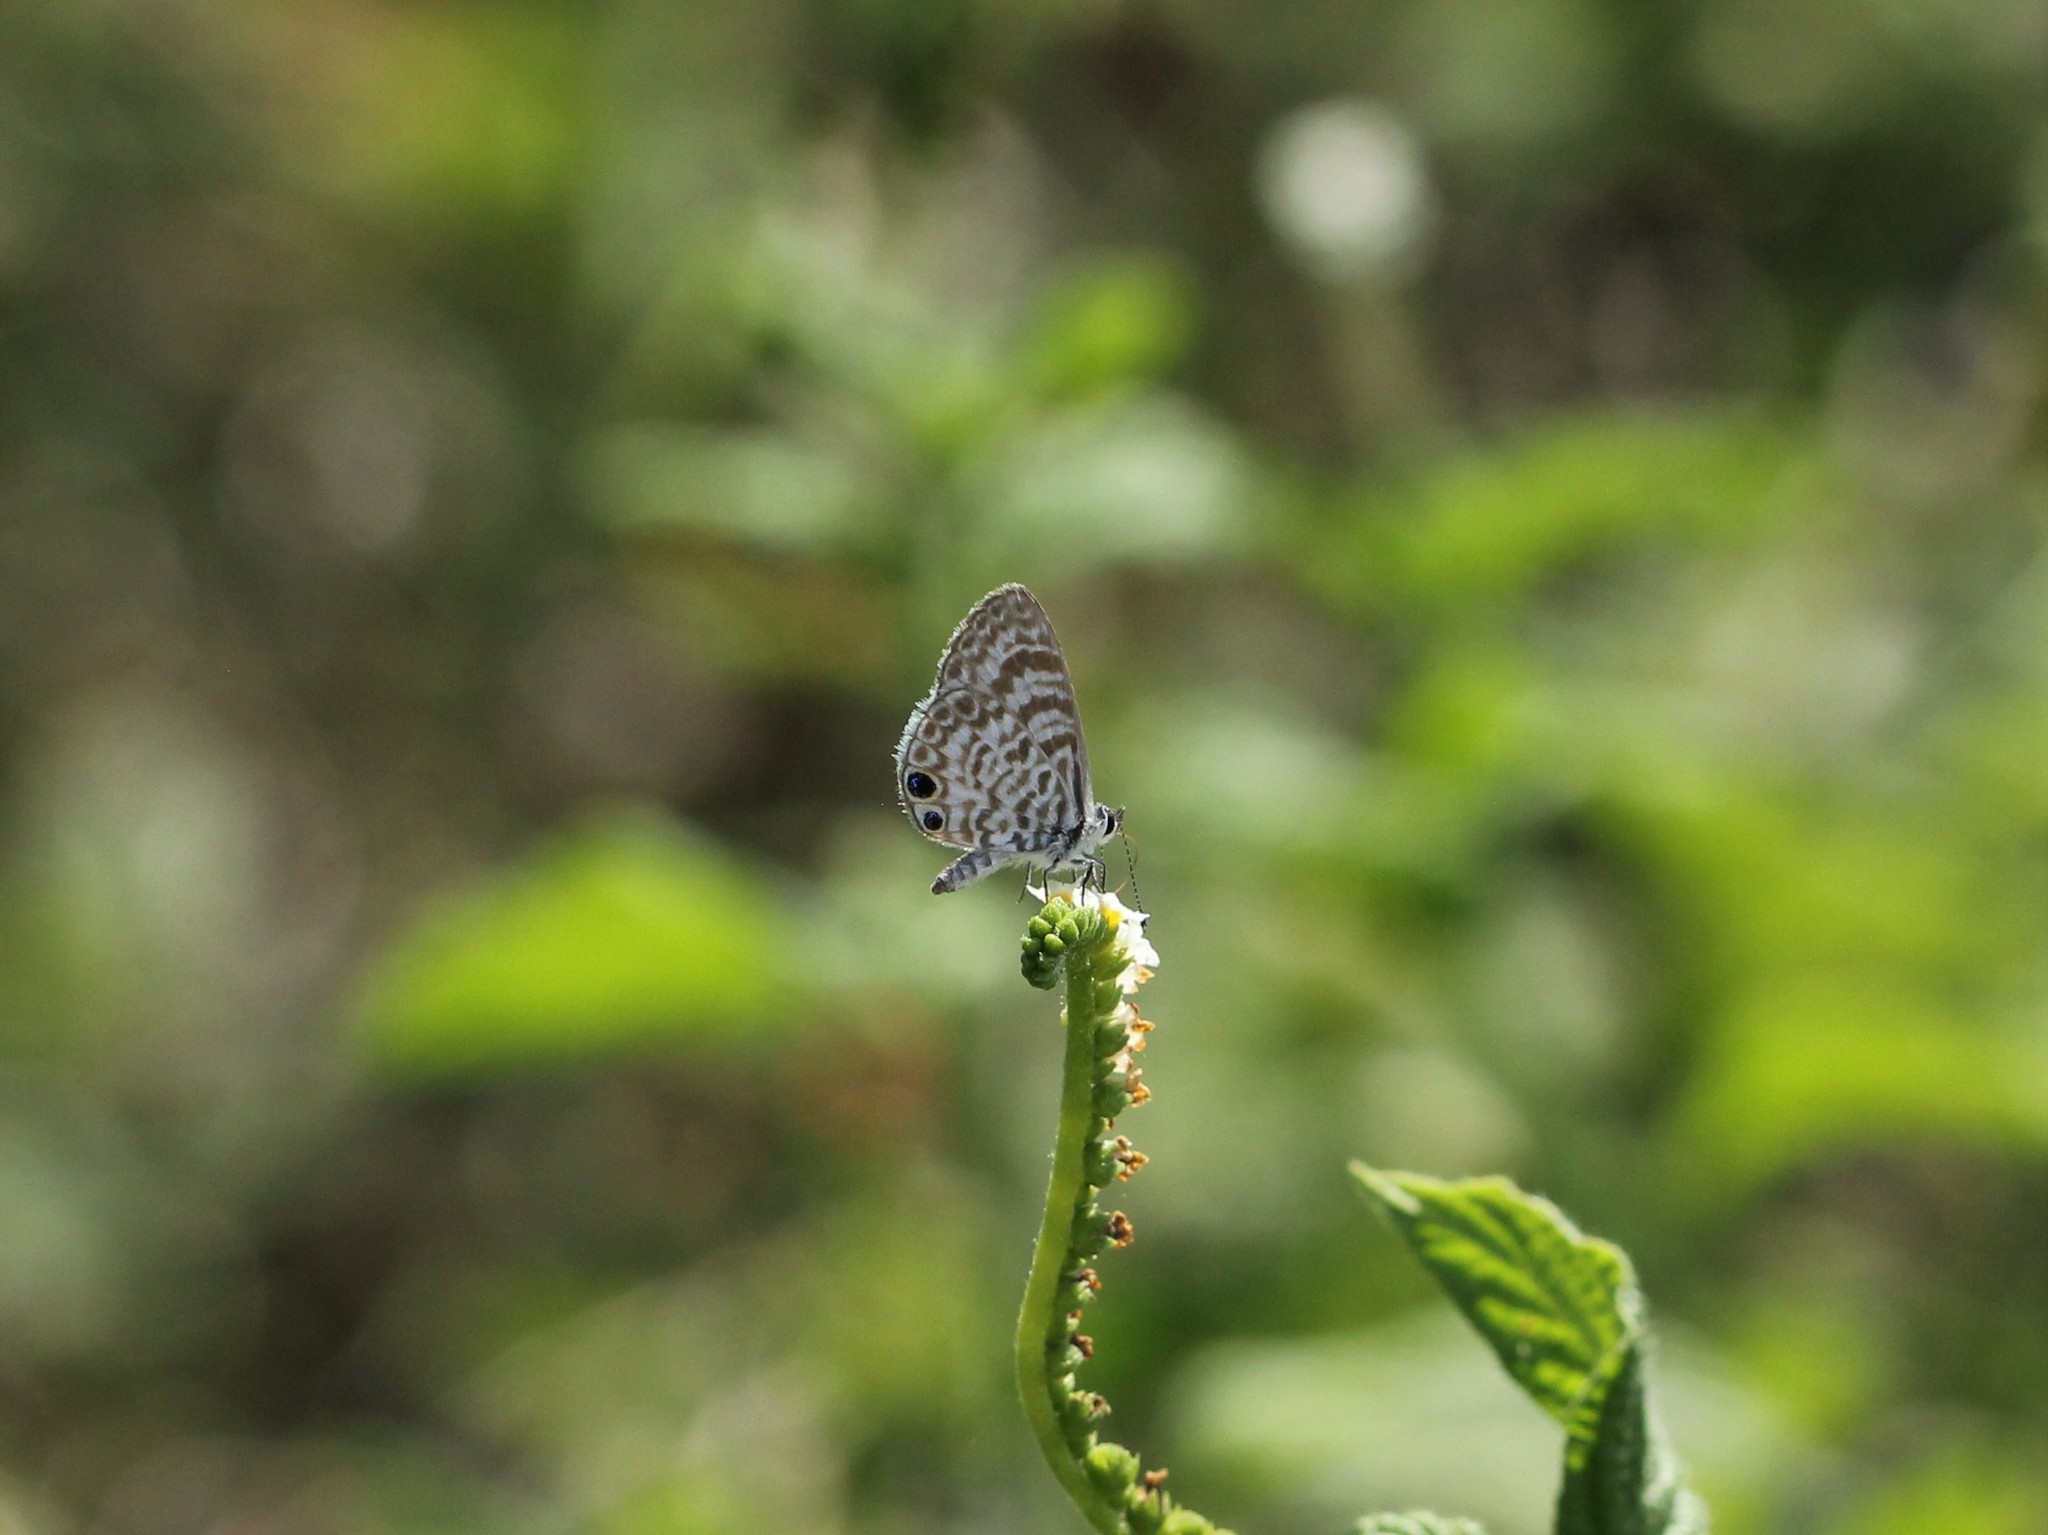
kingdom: Animalia
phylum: Arthropoda
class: Insecta
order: Lepidoptera
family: Lycaenidae
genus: Leptotes
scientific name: Leptotes cassius
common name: Cassius blue
